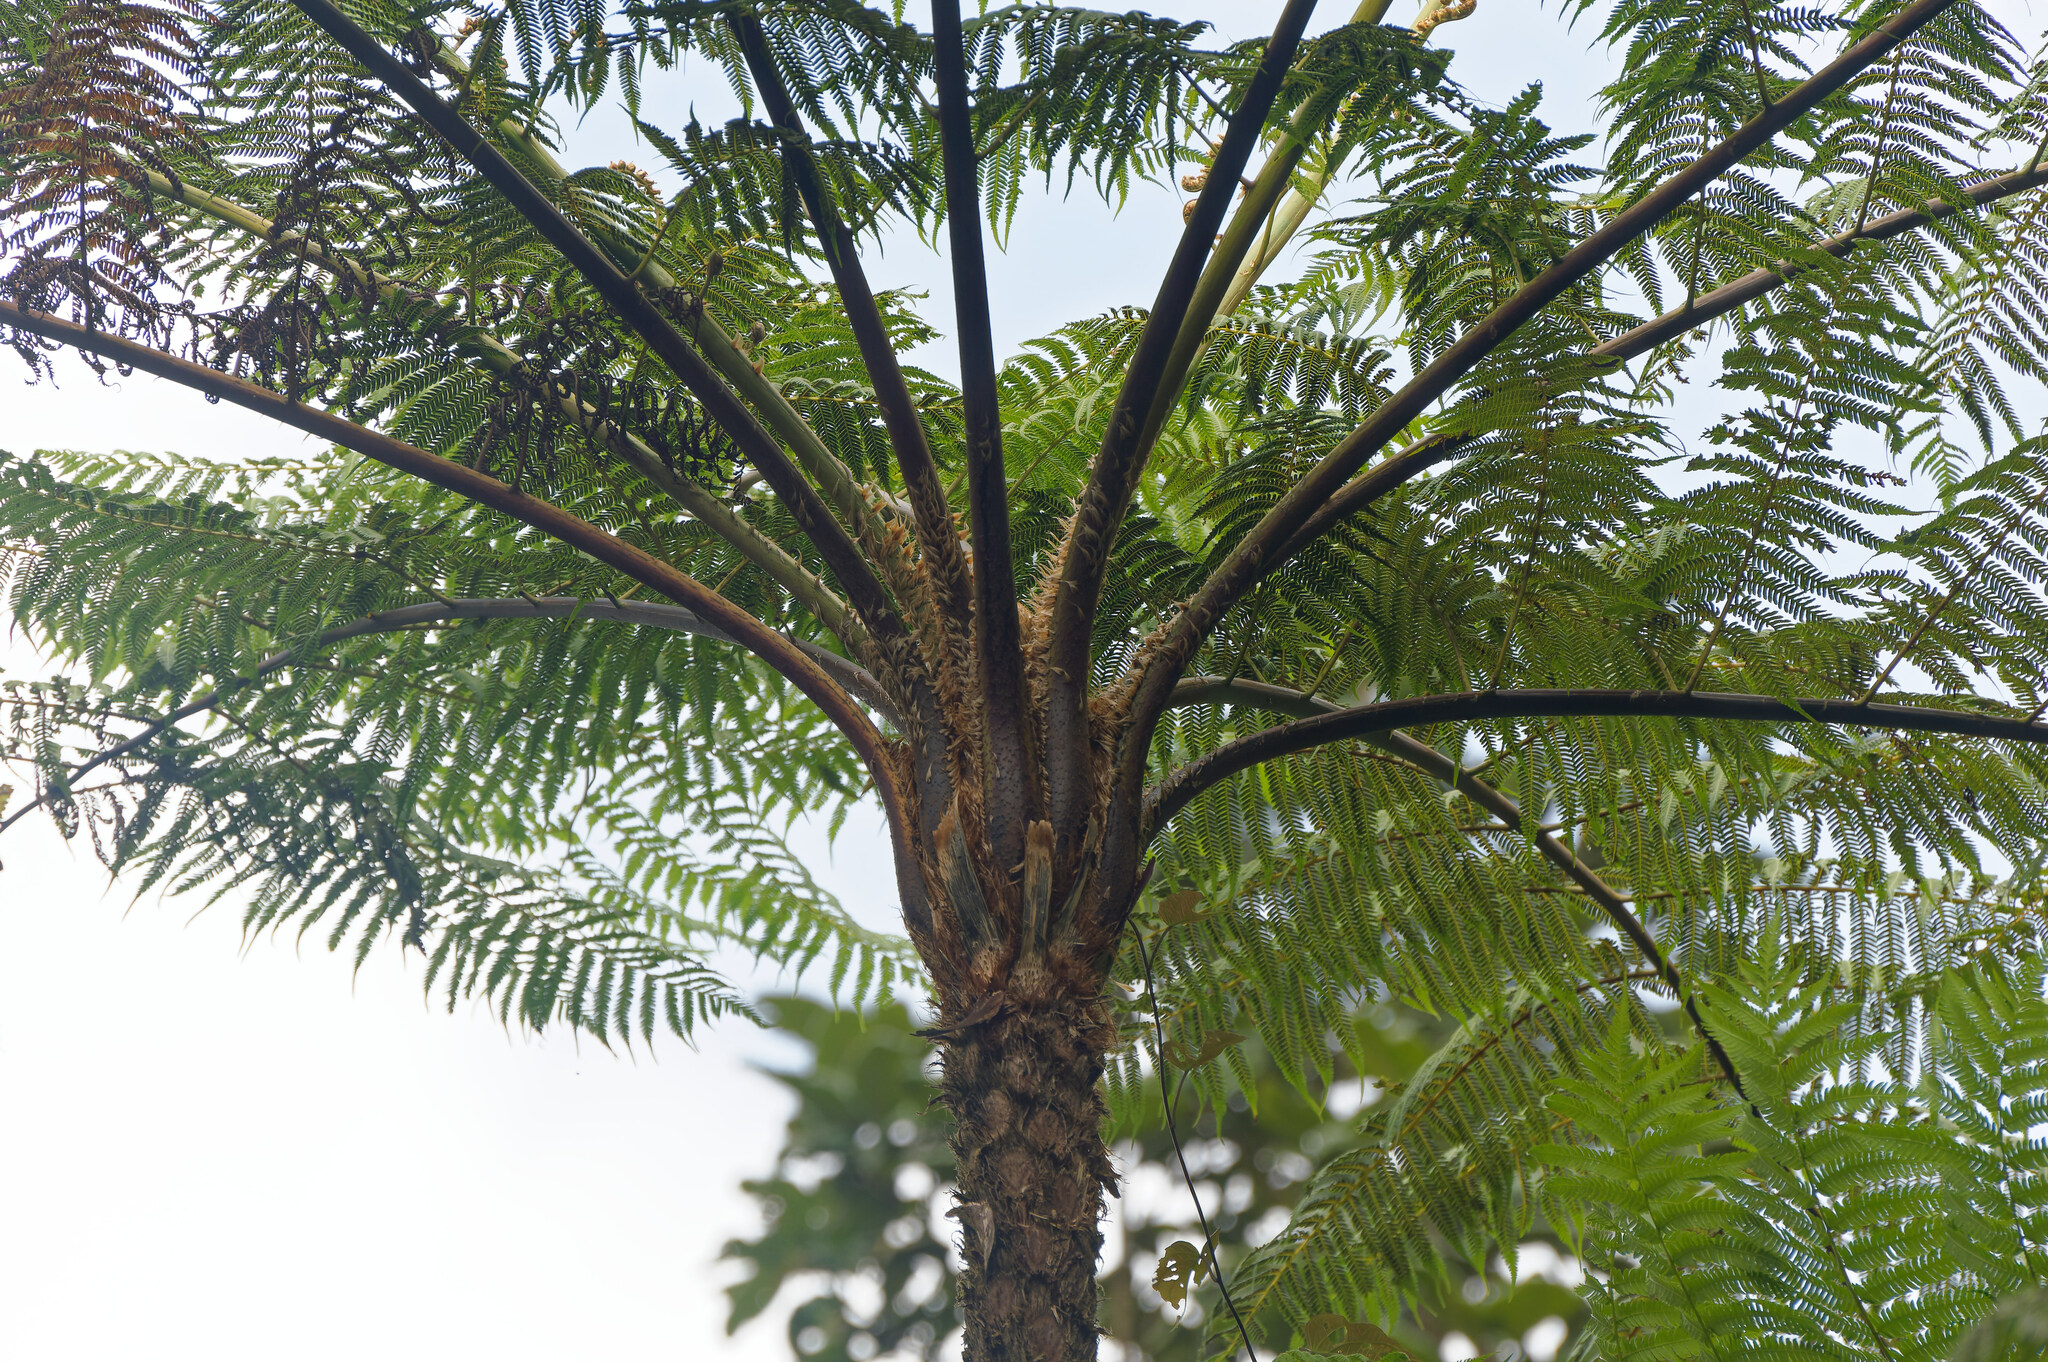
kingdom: Plantae
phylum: Tracheophyta
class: Polypodiopsida
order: Cyatheales
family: Cyatheaceae
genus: Cyathea
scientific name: Cyathea arborea
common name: West indian treefern
